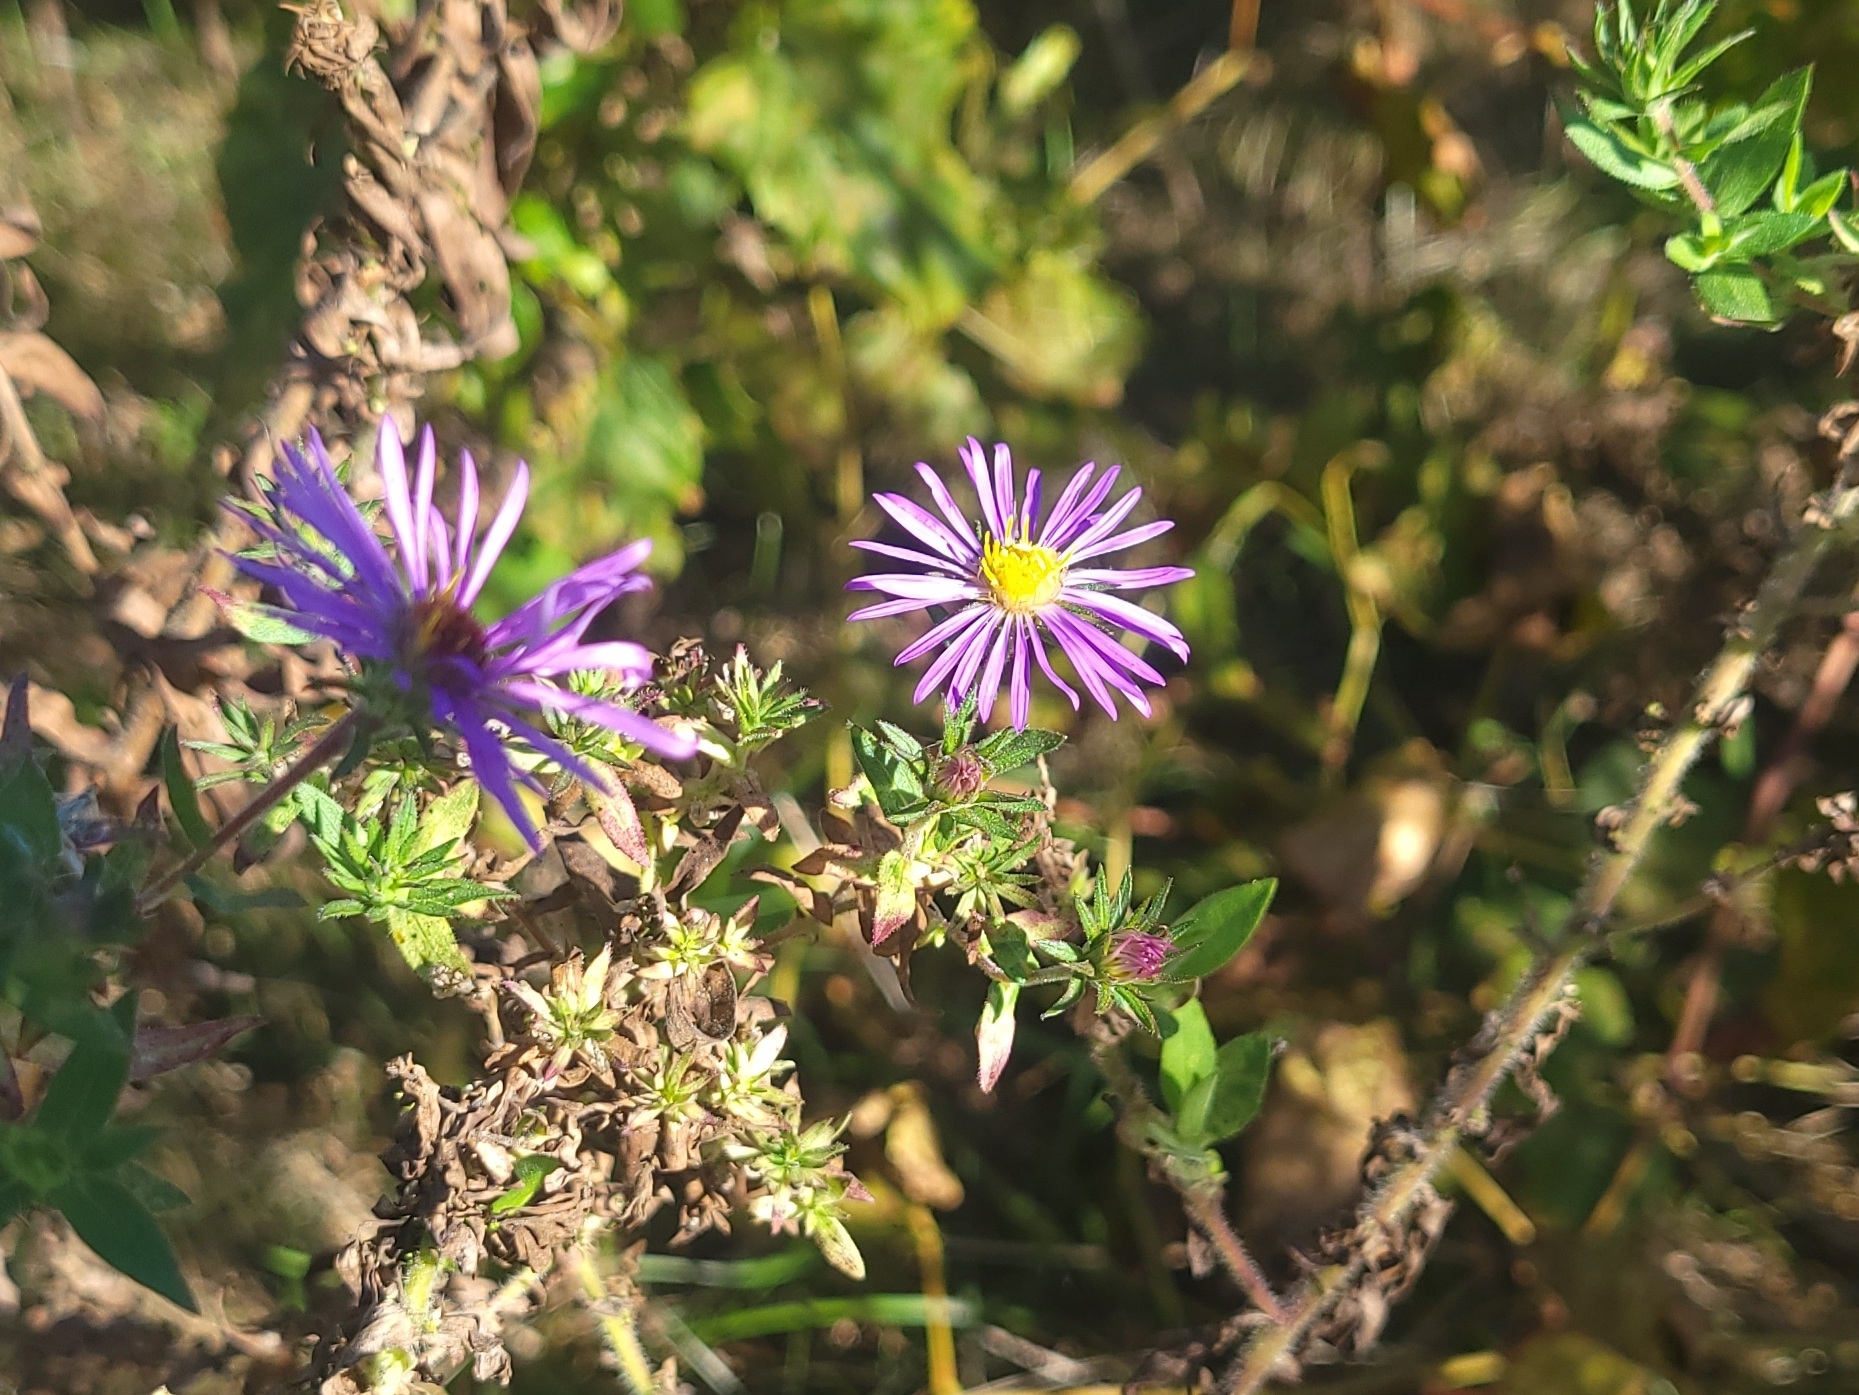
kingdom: Plantae
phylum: Tracheophyta
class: Magnoliopsida
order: Asterales
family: Asteraceae
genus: Symphyotrichum
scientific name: Symphyotrichum novae-angliae
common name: Michaelmas daisy
